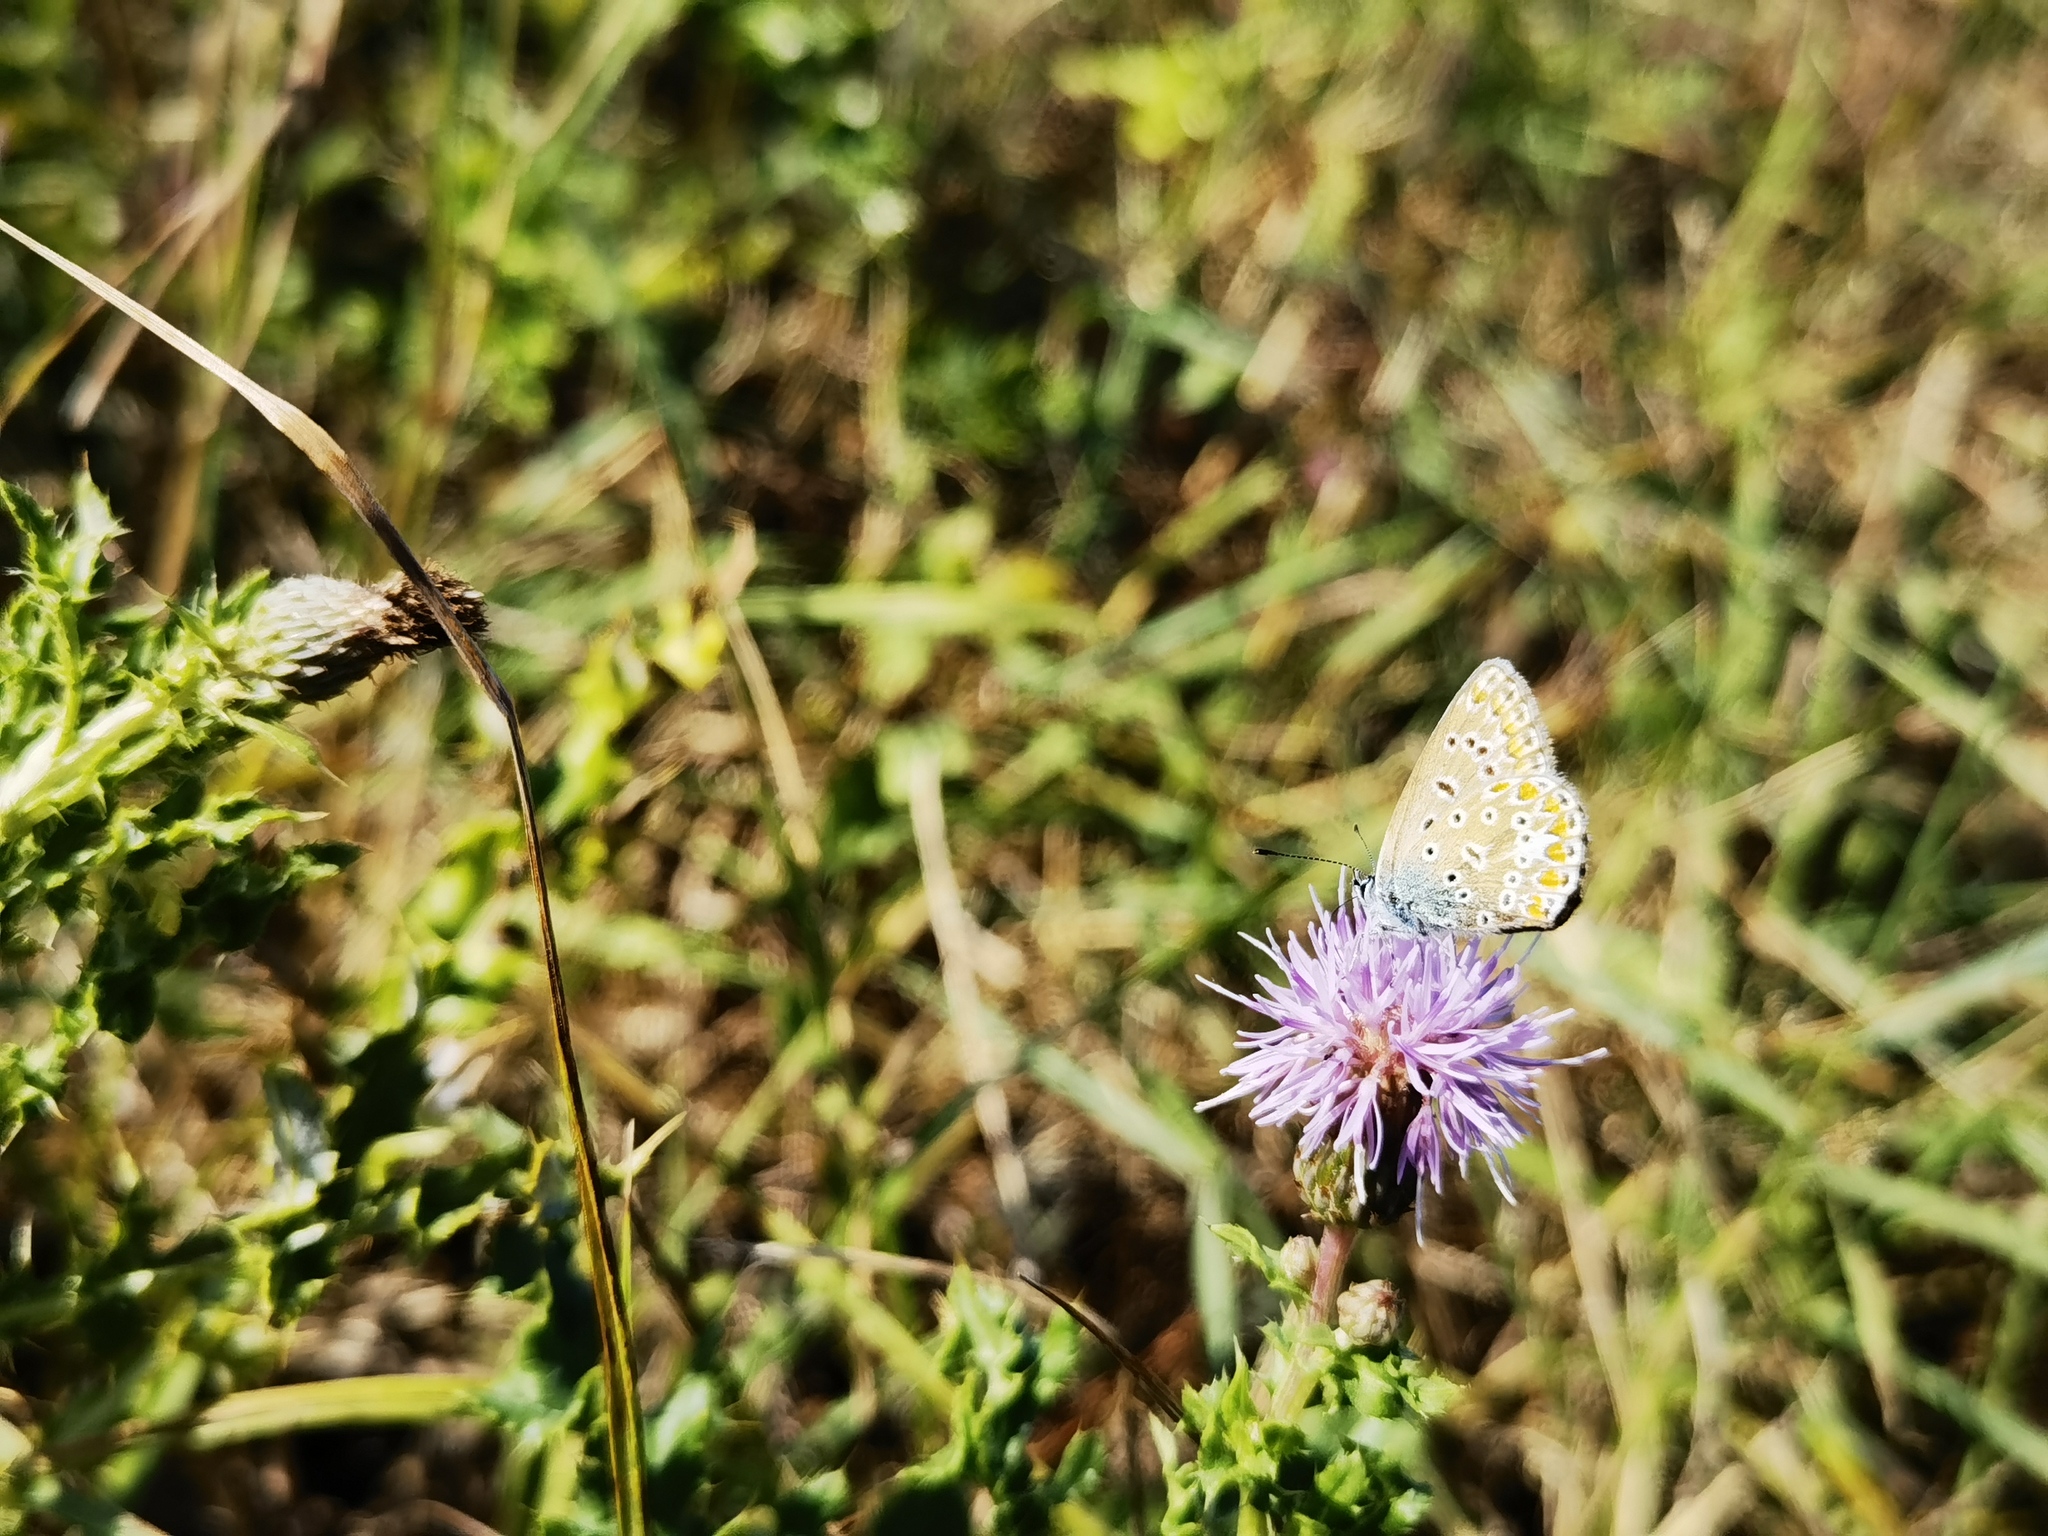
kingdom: Animalia
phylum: Arthropoda
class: Insecta
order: Lepidoptera
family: Lycaenidae
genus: Polyommatus
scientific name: Polyommatus icarus
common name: Common blue
